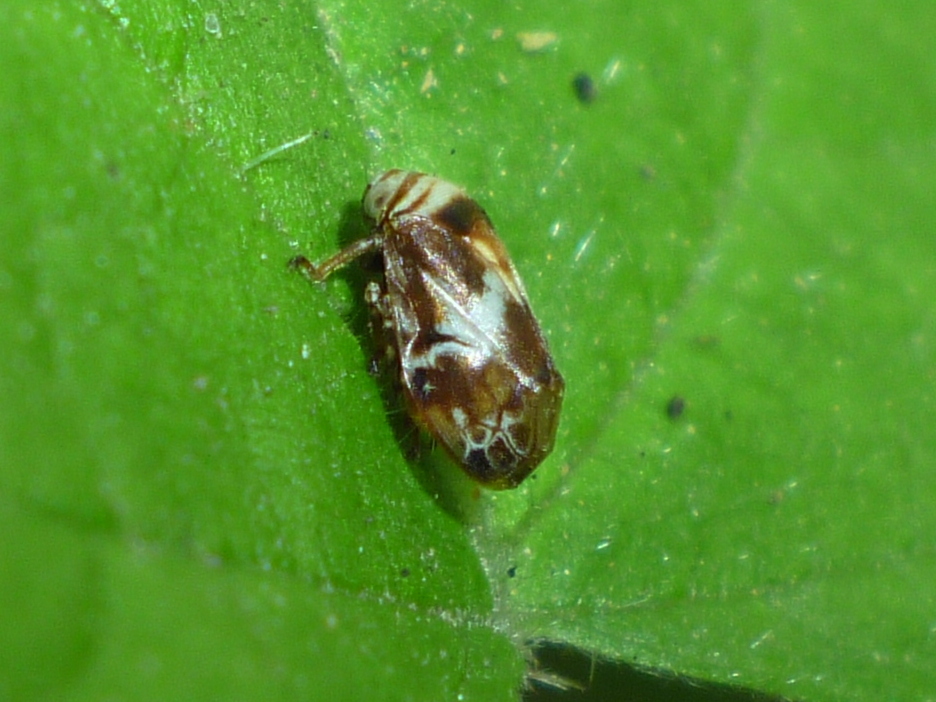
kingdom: Animalia
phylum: Arthropoda
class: Insecta
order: Hemiptera
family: Clastopteridae
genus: Clastoptera
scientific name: Clastoptera obtusa
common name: Alder spittlebug
